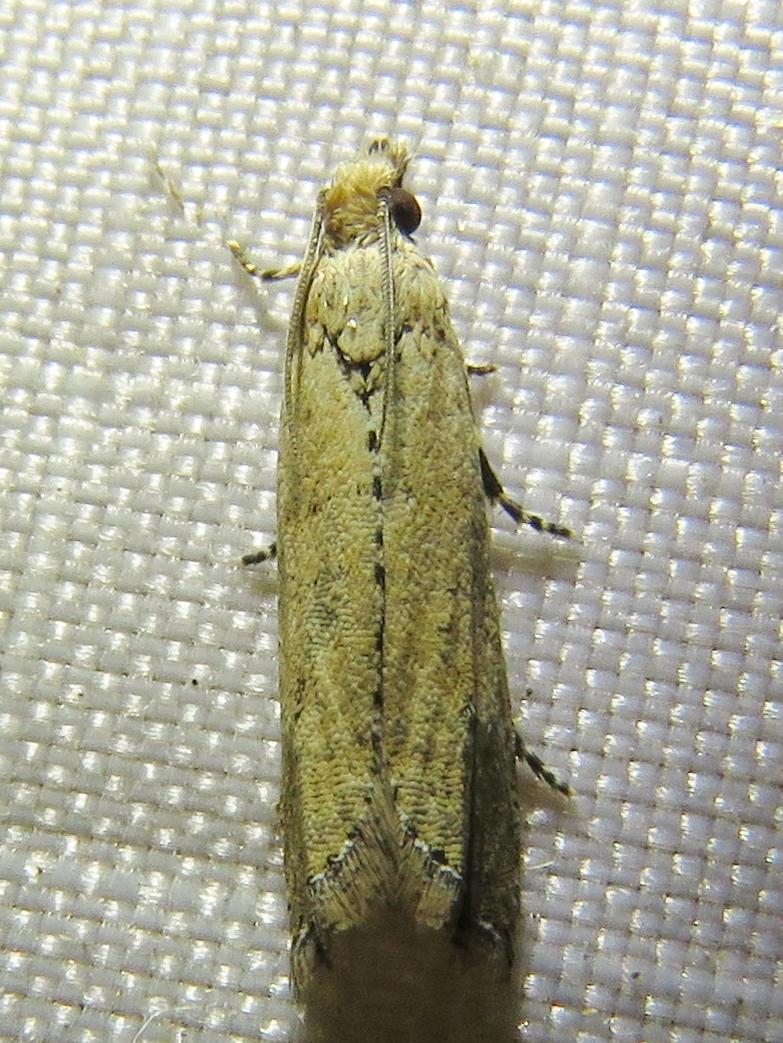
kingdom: Animalia
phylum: Arthropoda
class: Insecta
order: Lepidoptera
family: Tortricidae
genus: Bactra
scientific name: Bactra verutana
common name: Javelin moth
